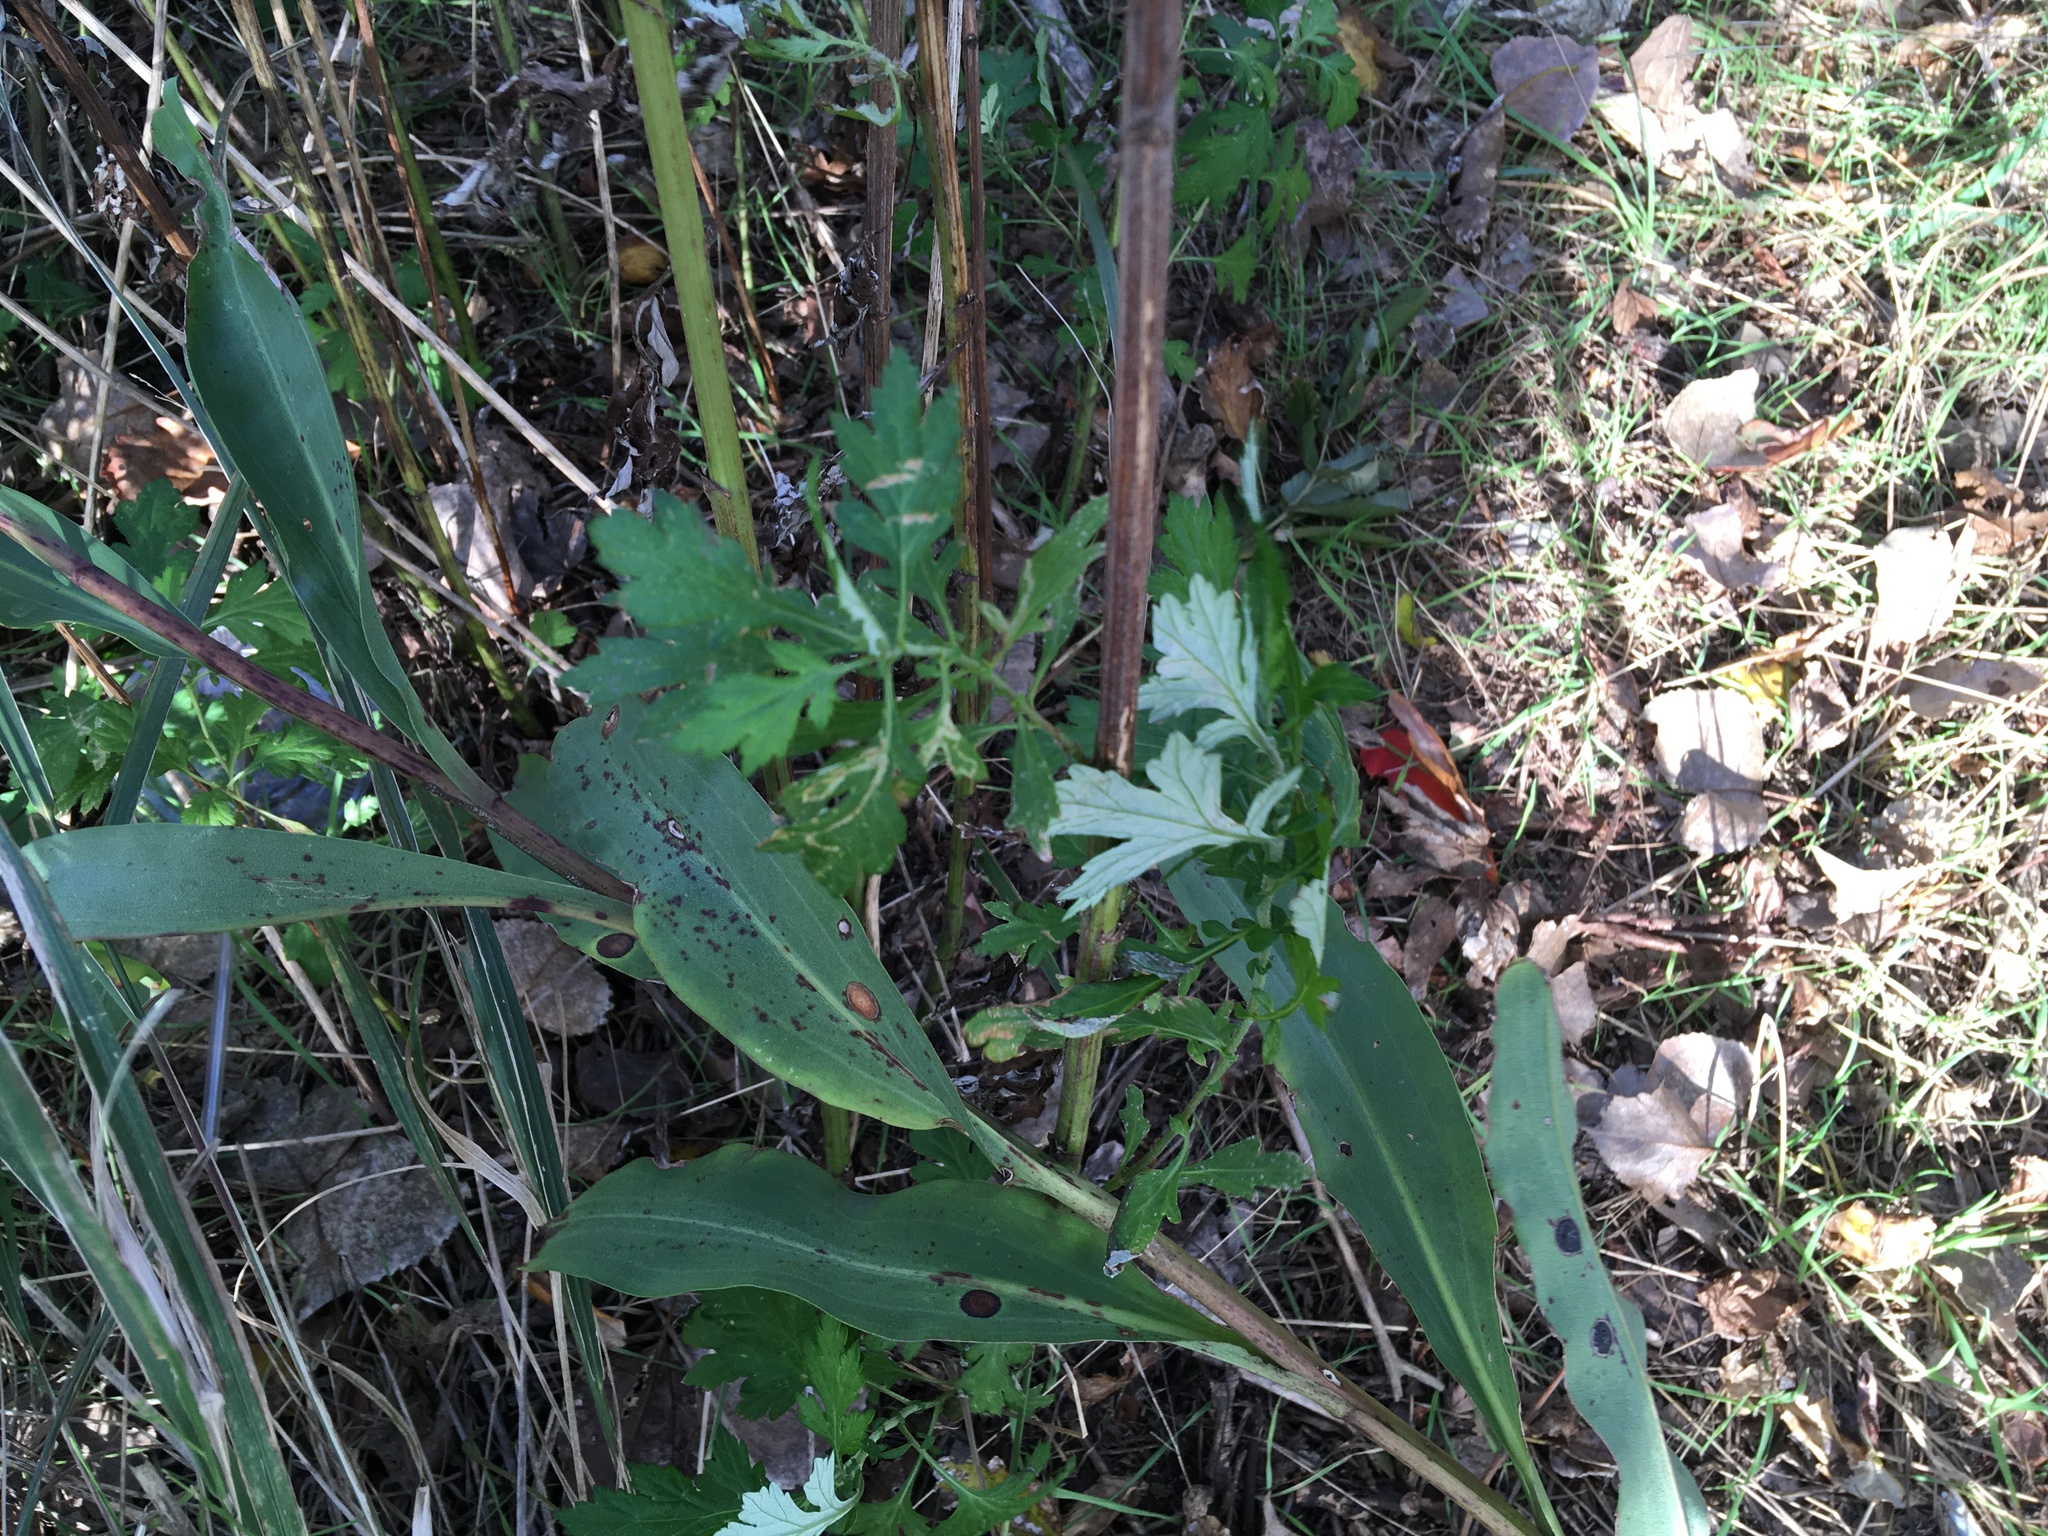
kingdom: Plantae
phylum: Tracheophyta
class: Magnoliopsida
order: Asterales
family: Asteraceae
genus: Artemisia
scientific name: Artemisia vulgaris
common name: Mugwort
